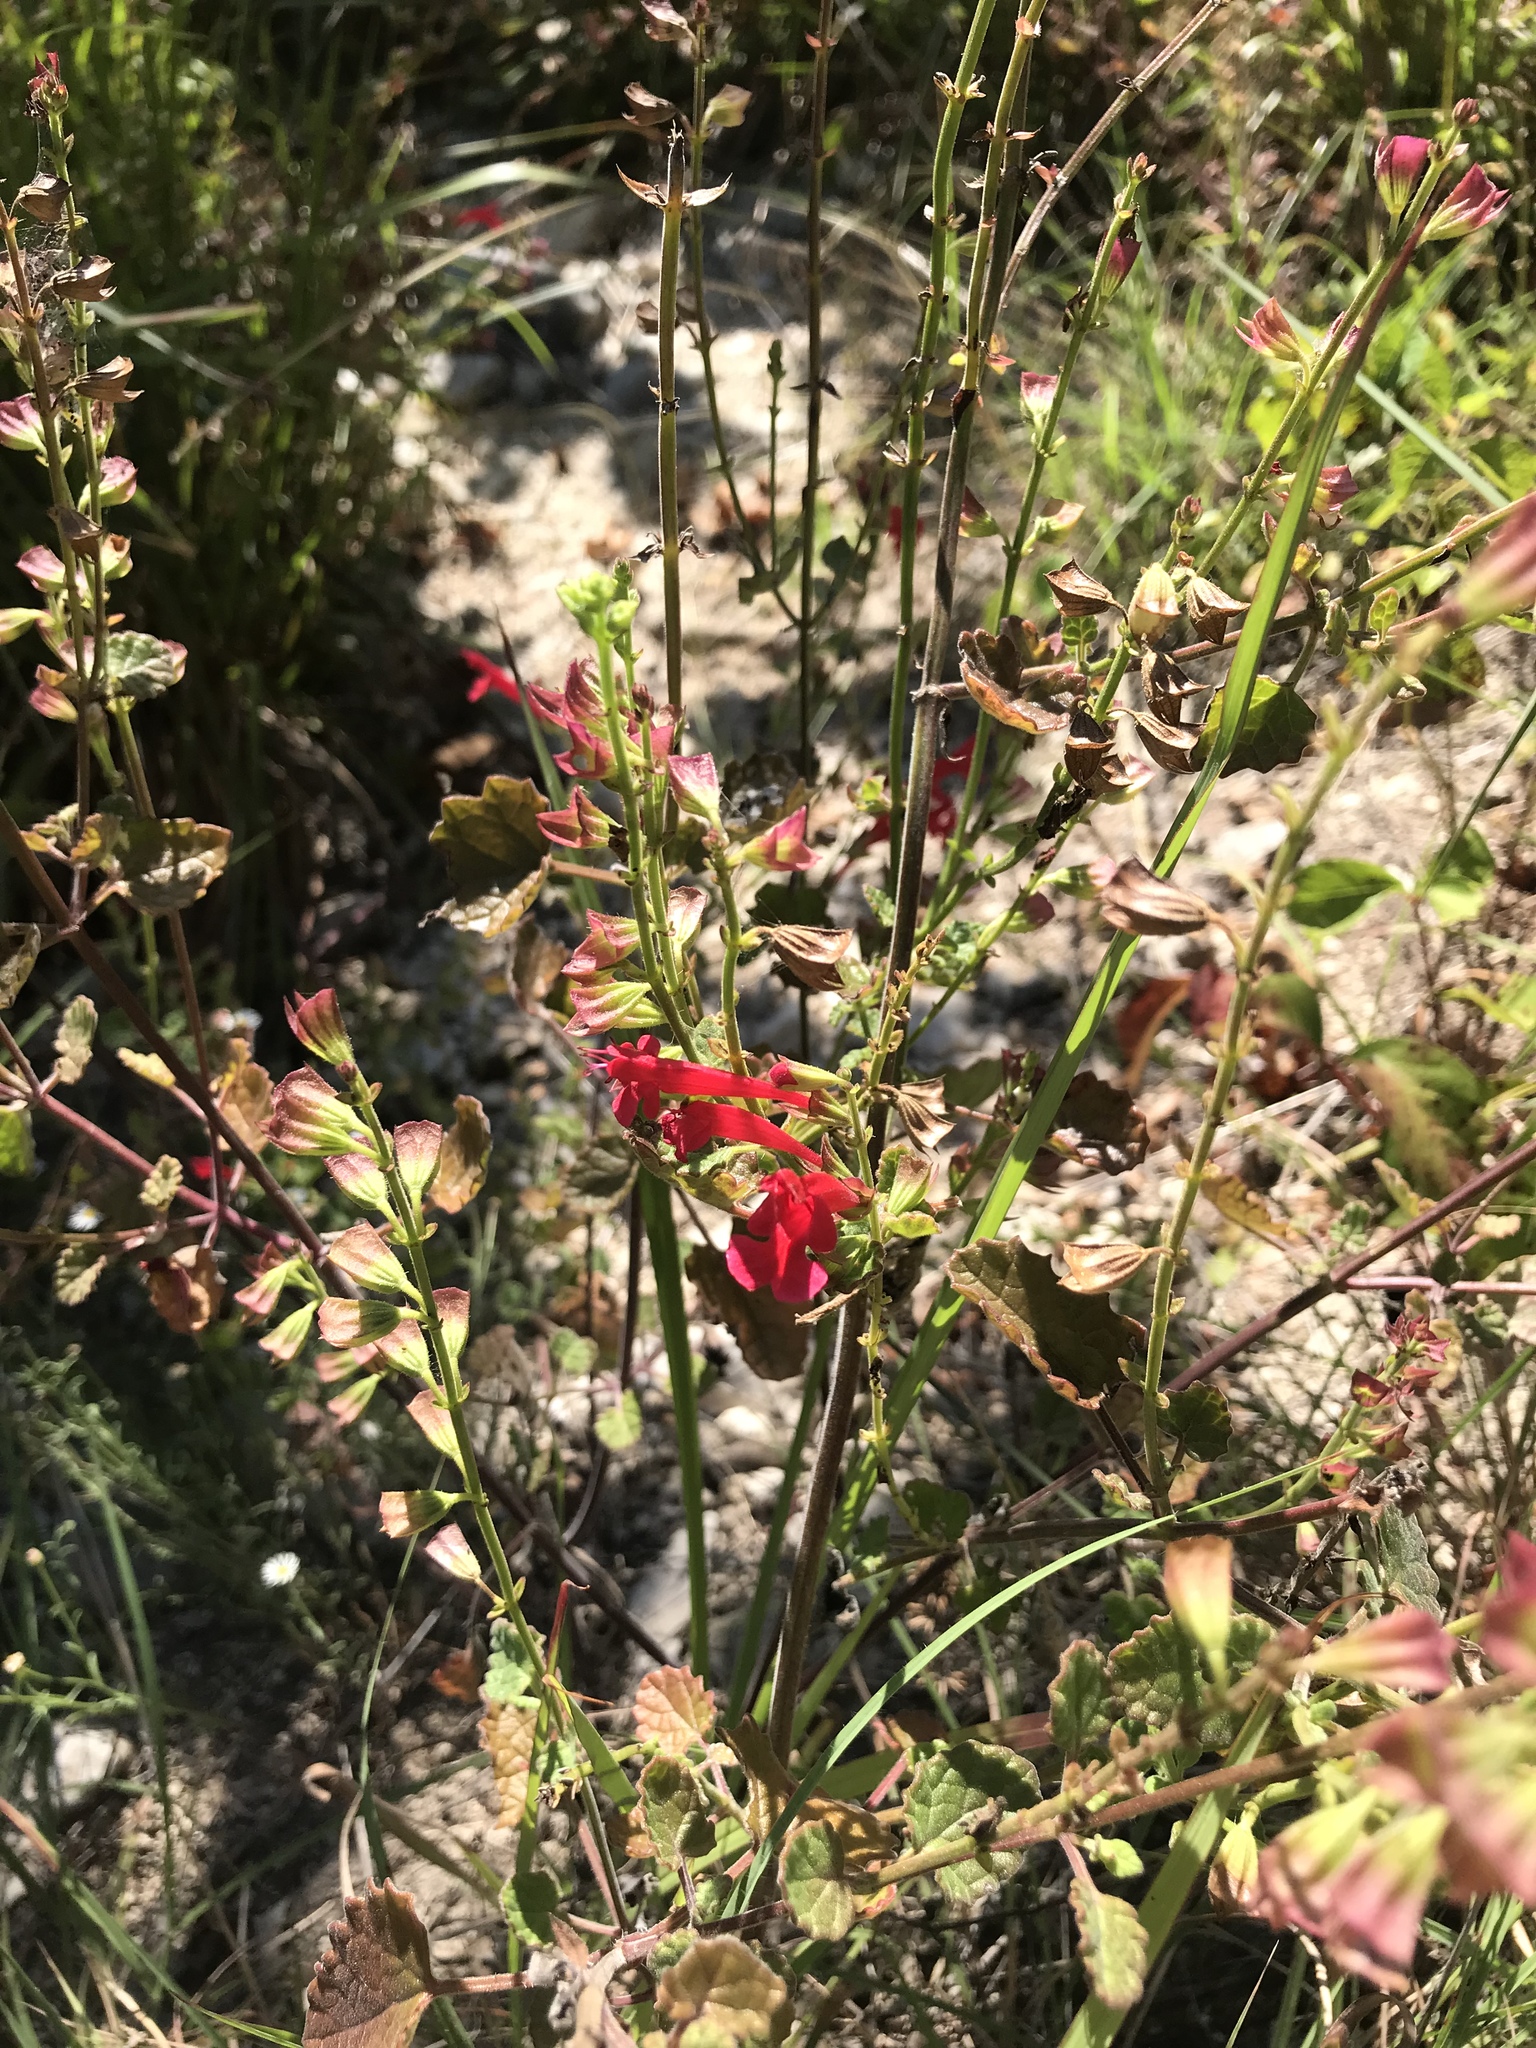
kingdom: Plantae
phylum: Tracheophyta
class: Magnoliopsida
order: Lamiales
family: Lamiaceae
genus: Salvia
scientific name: Salvia roemeriana
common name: Cedar sage
